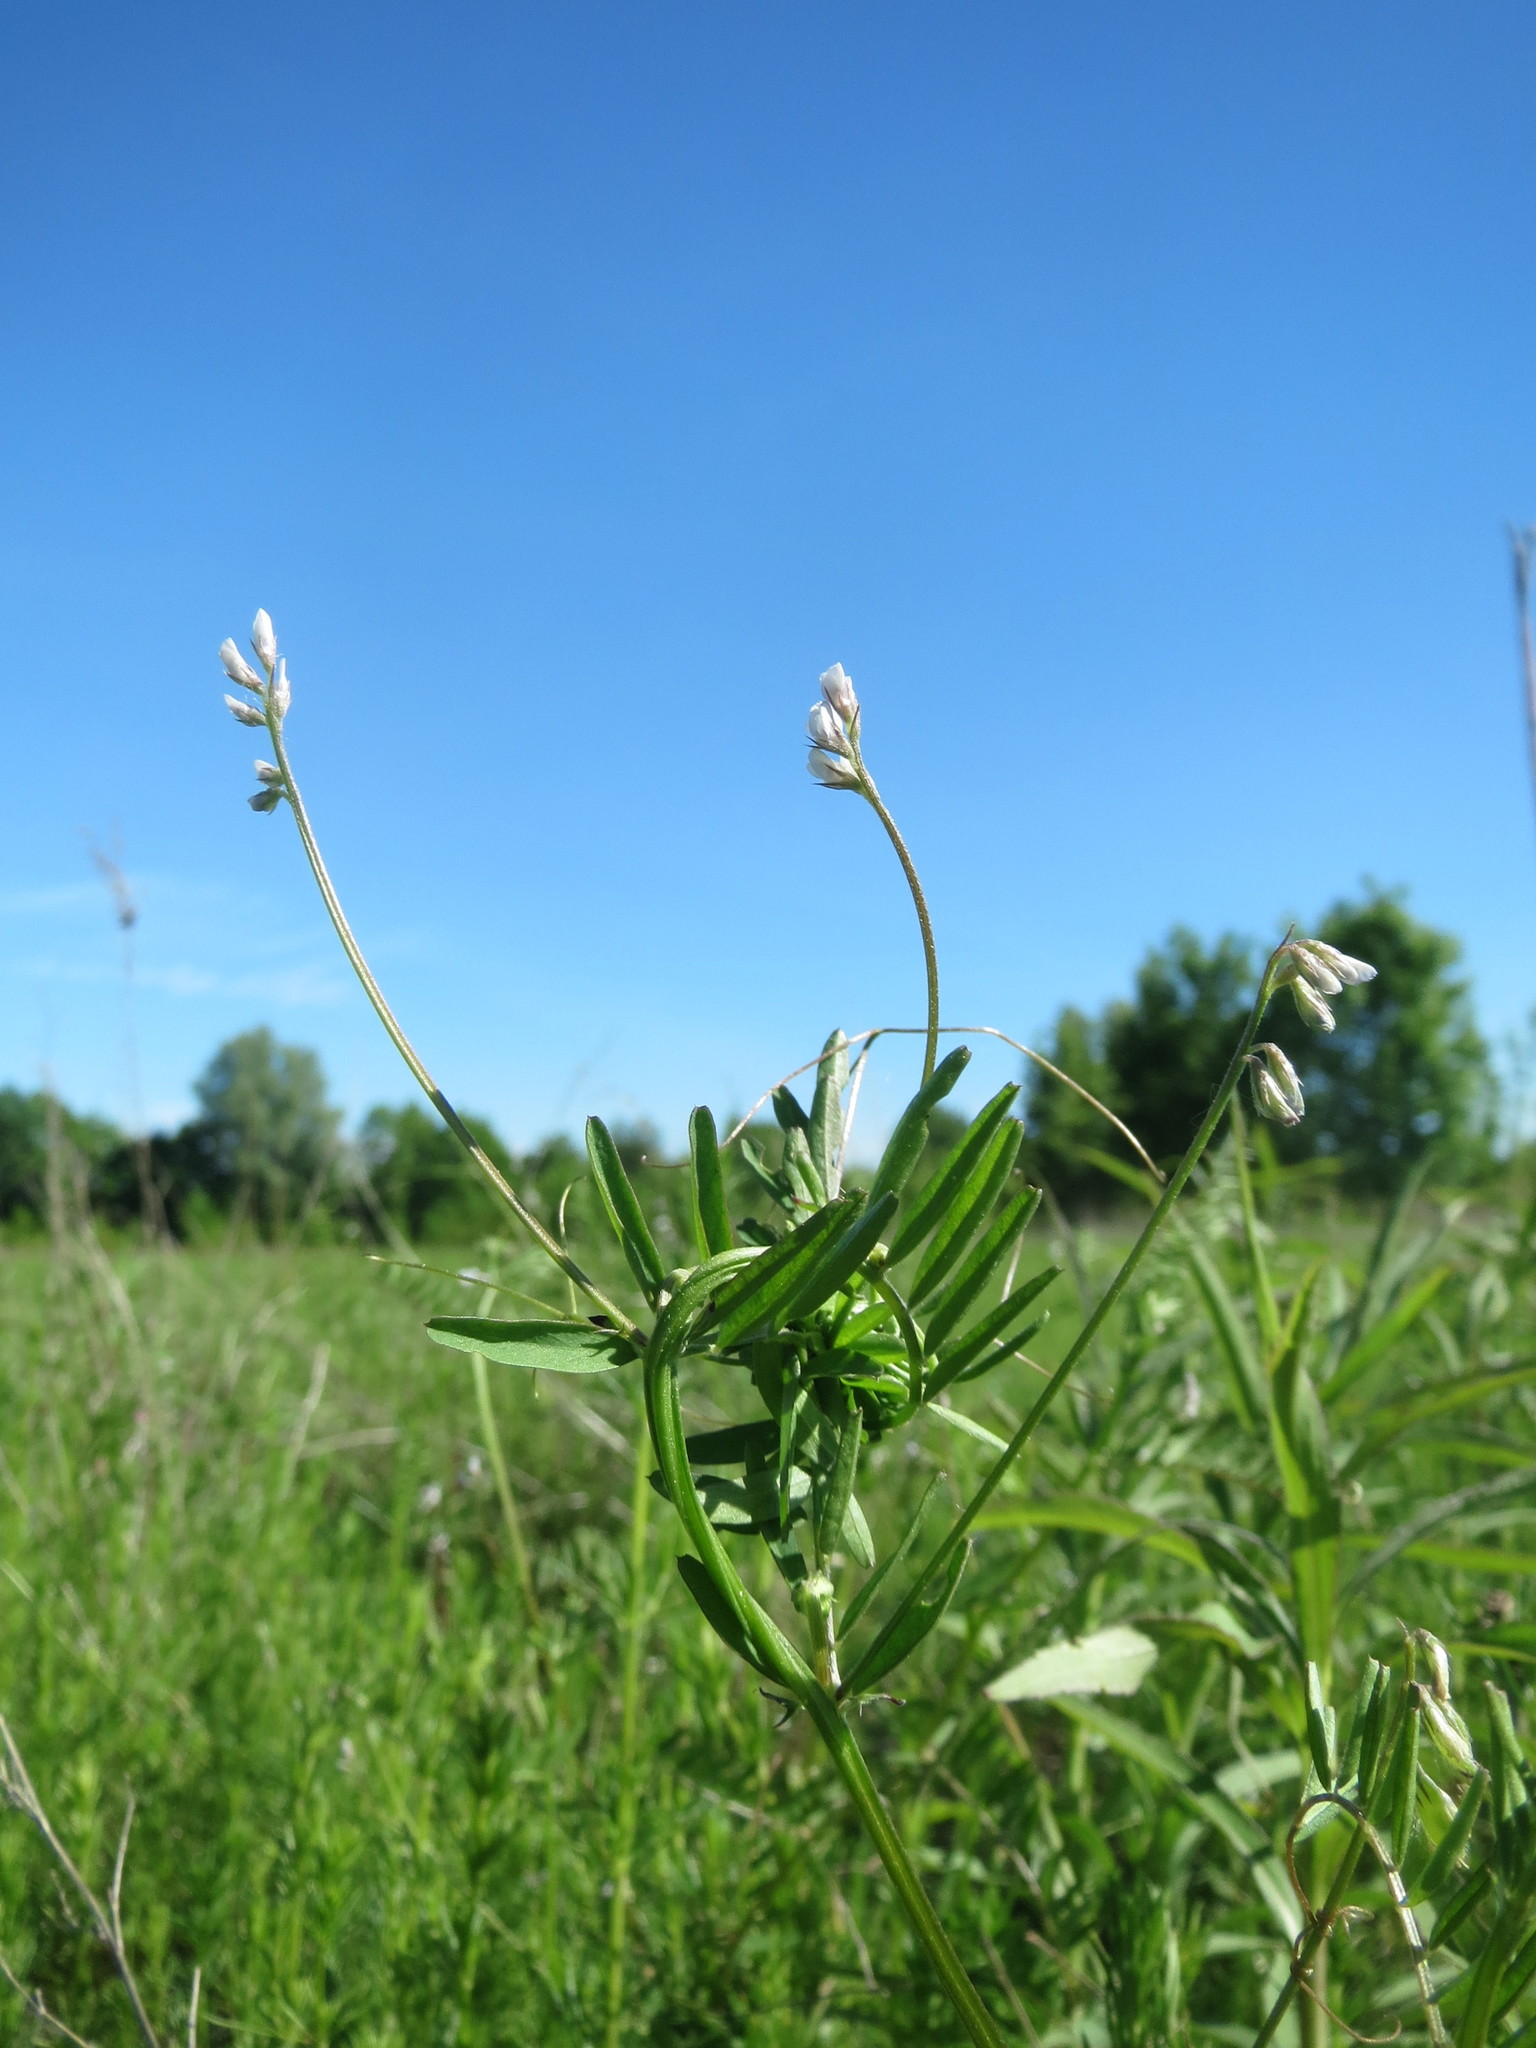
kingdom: Plantae
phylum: Tracheophyta
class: Magnoliopsida
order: Fabales
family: Fabaceae
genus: Vicia
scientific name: Vicia hirsuta
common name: Tiny vetch
